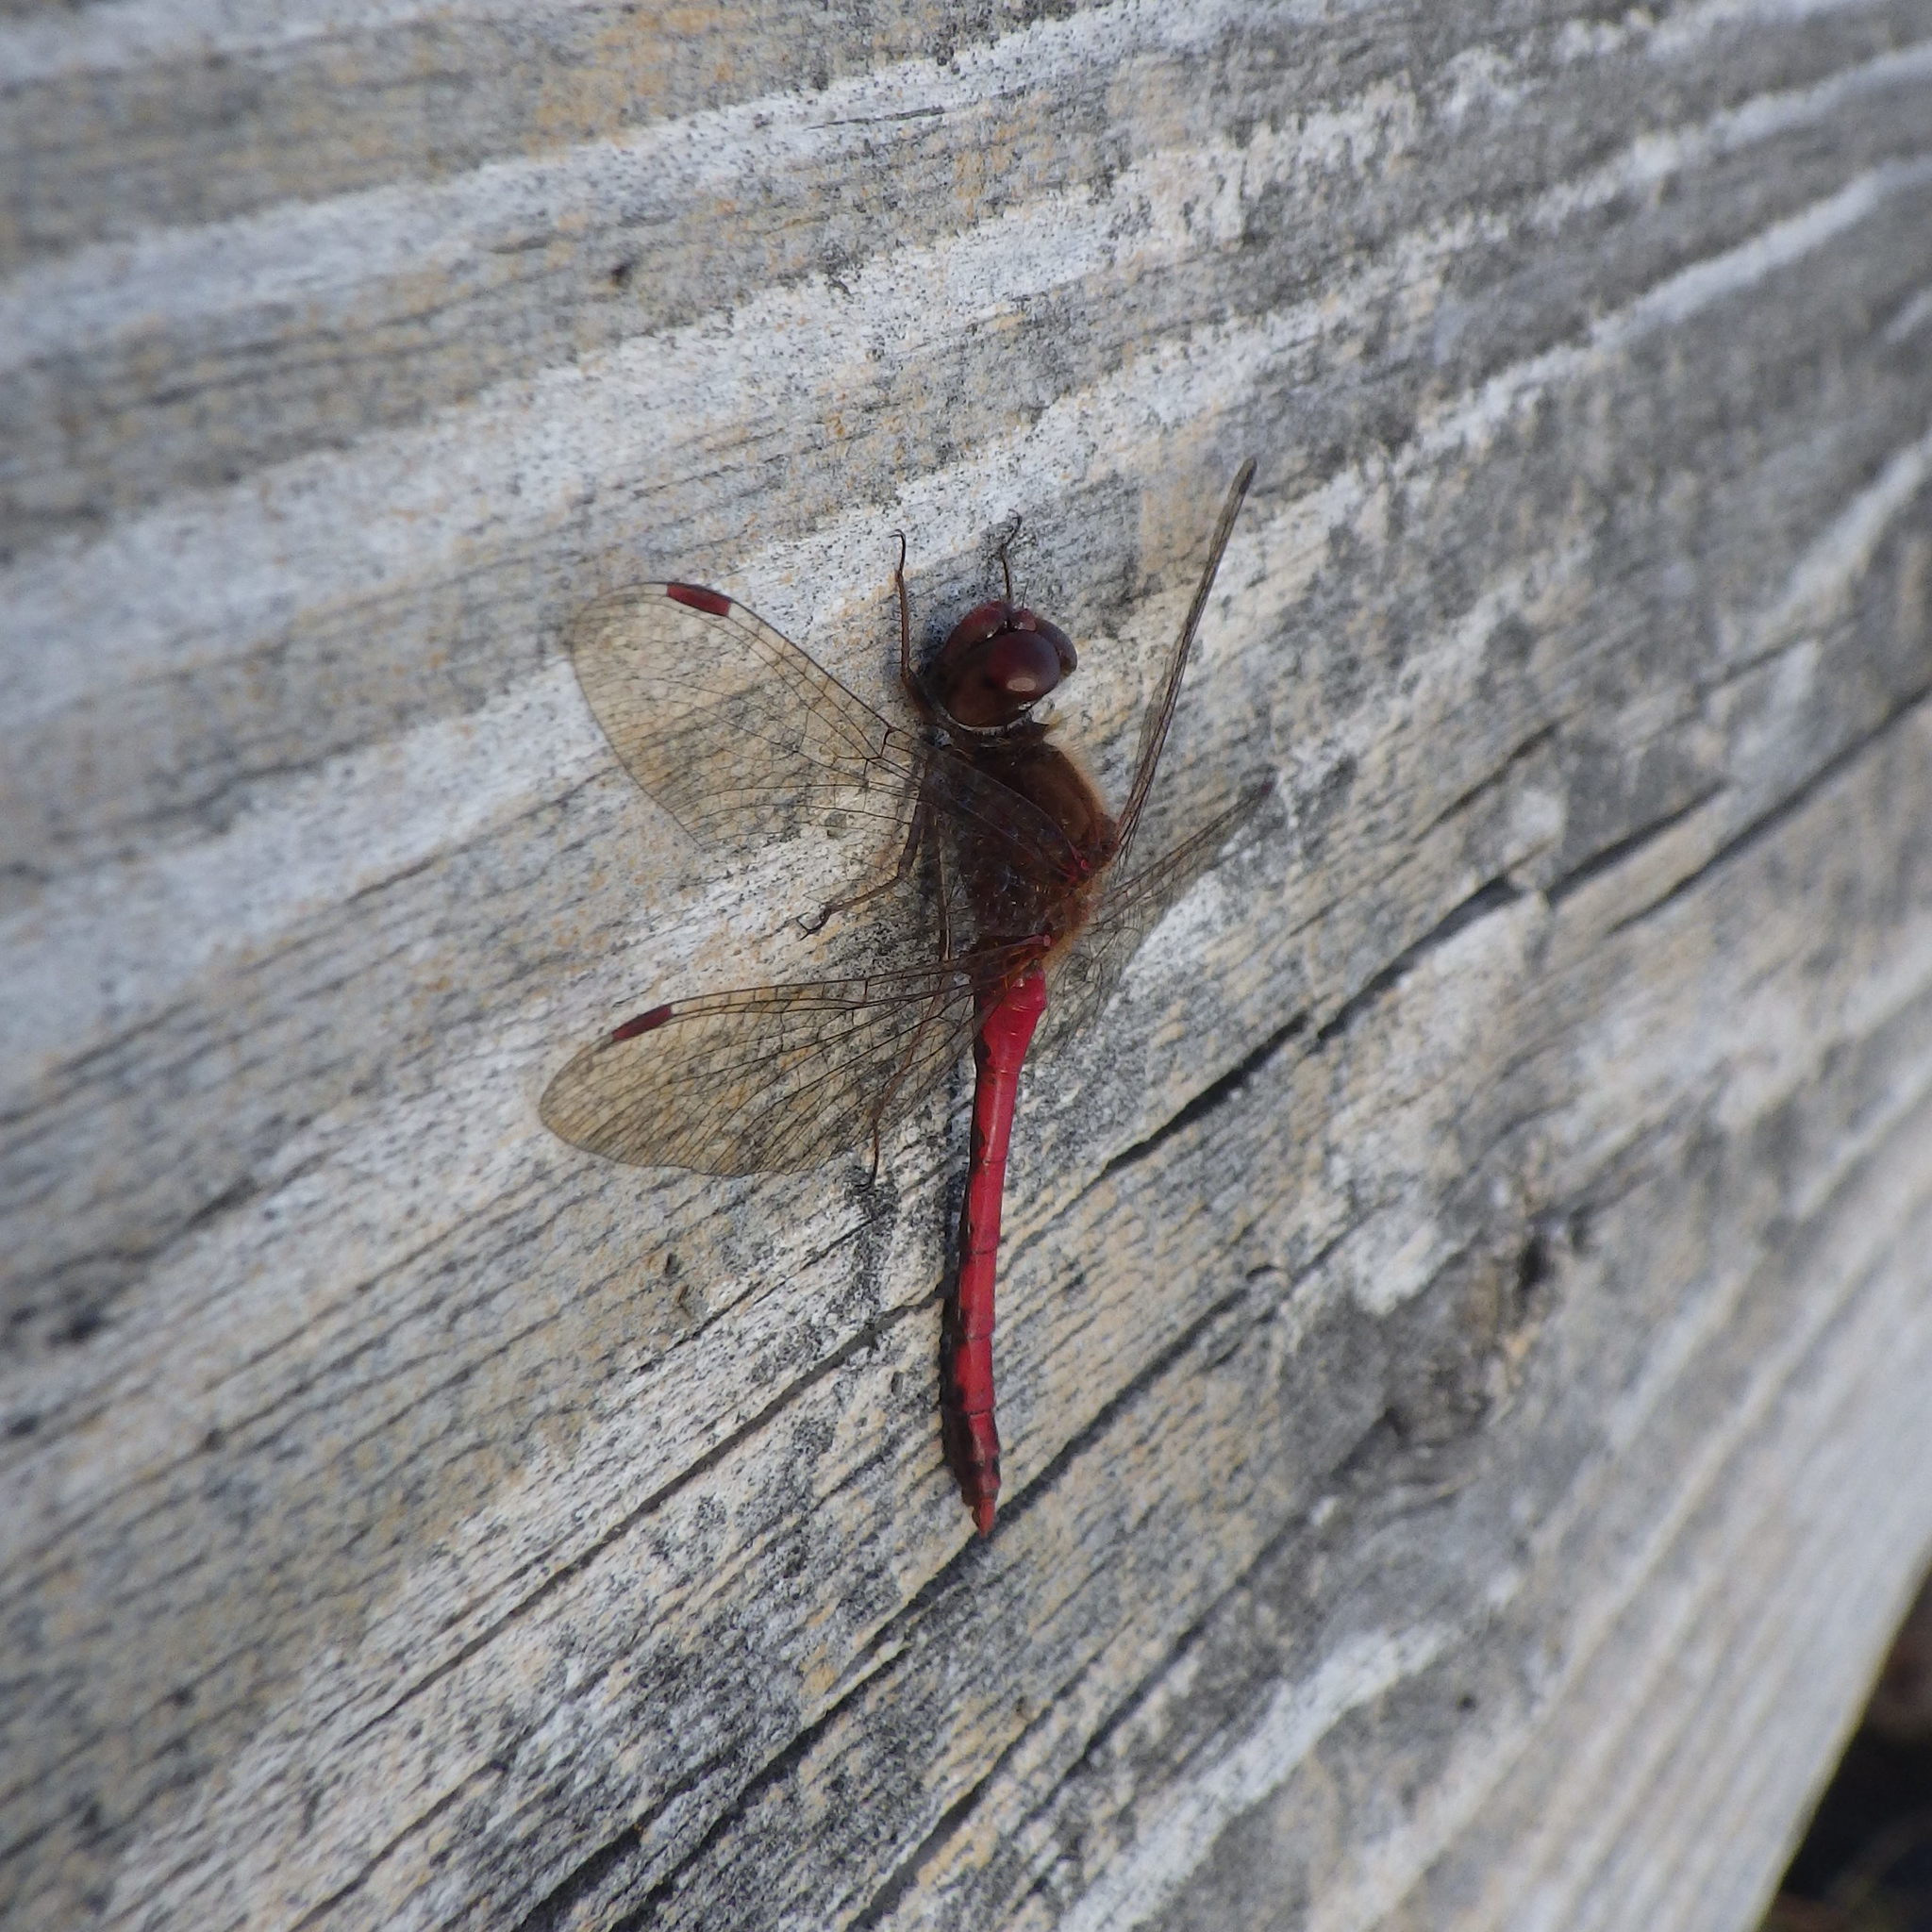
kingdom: Animalia
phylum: Arthropoda
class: Insecta
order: Odonata
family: Libellulidae
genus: Sympetrum
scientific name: Sympetrum vicinum
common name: Autumn meadowhawk
